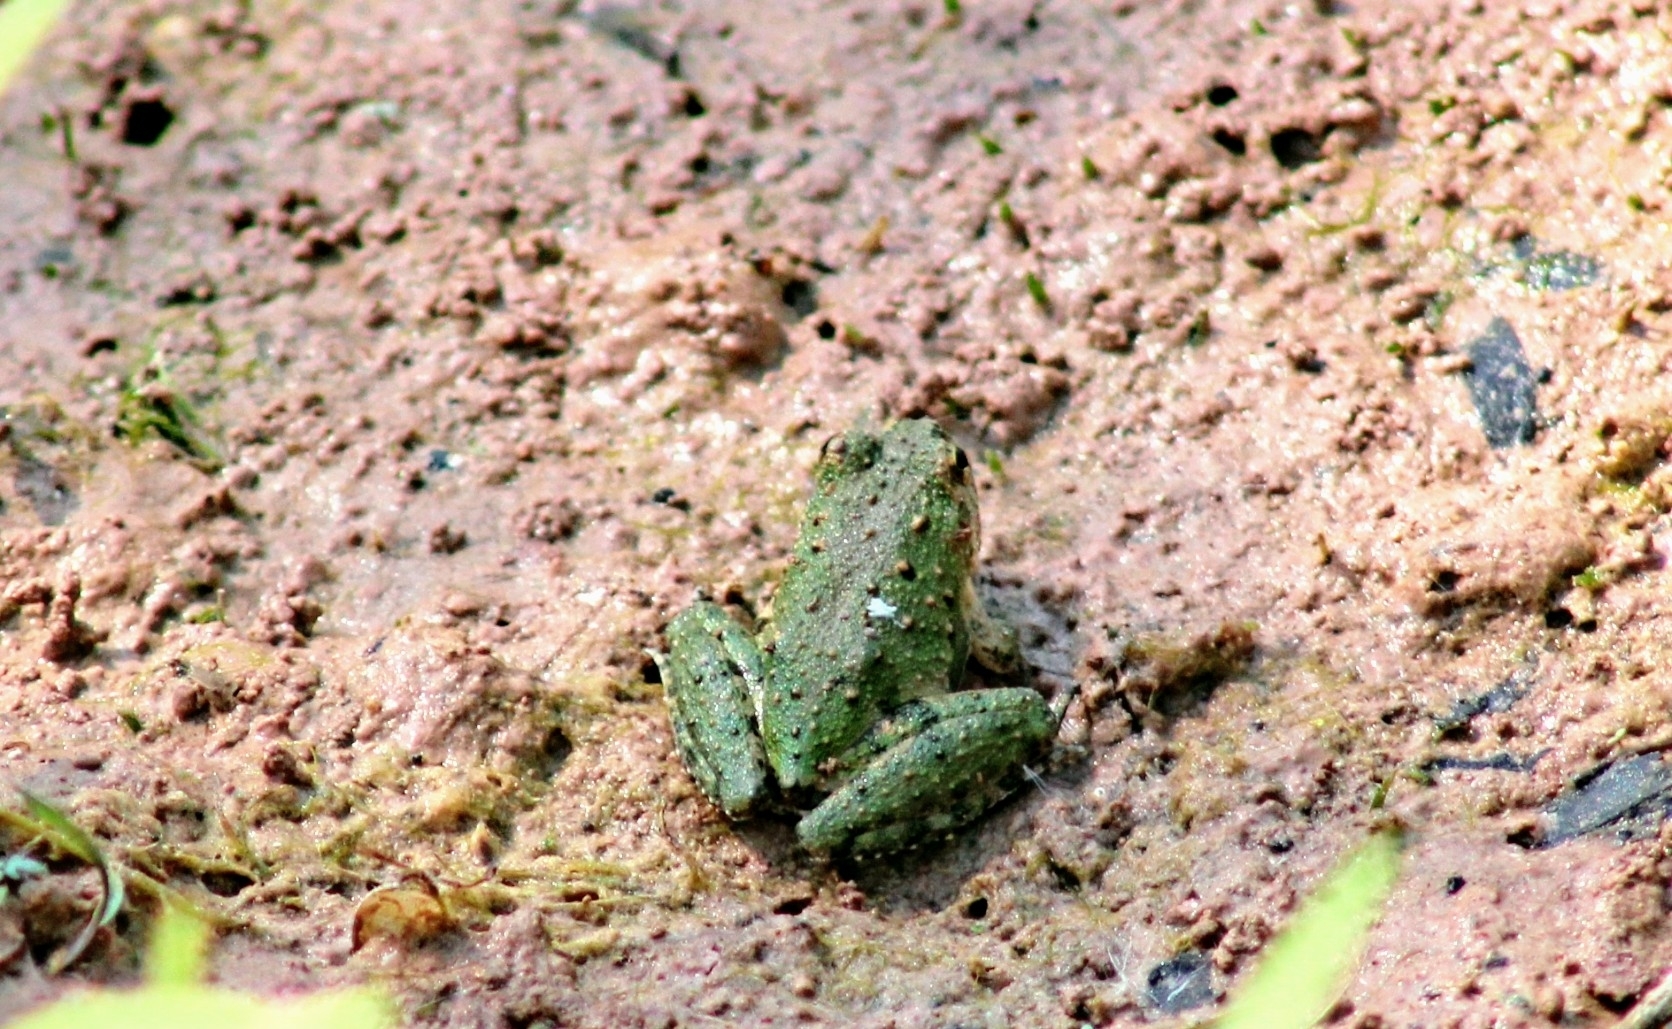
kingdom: Animalia
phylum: Chordata
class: Amphibia
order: Anura
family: Hylidae
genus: Acris
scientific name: Acris blanchardi
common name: Blanchard's cricket frog
